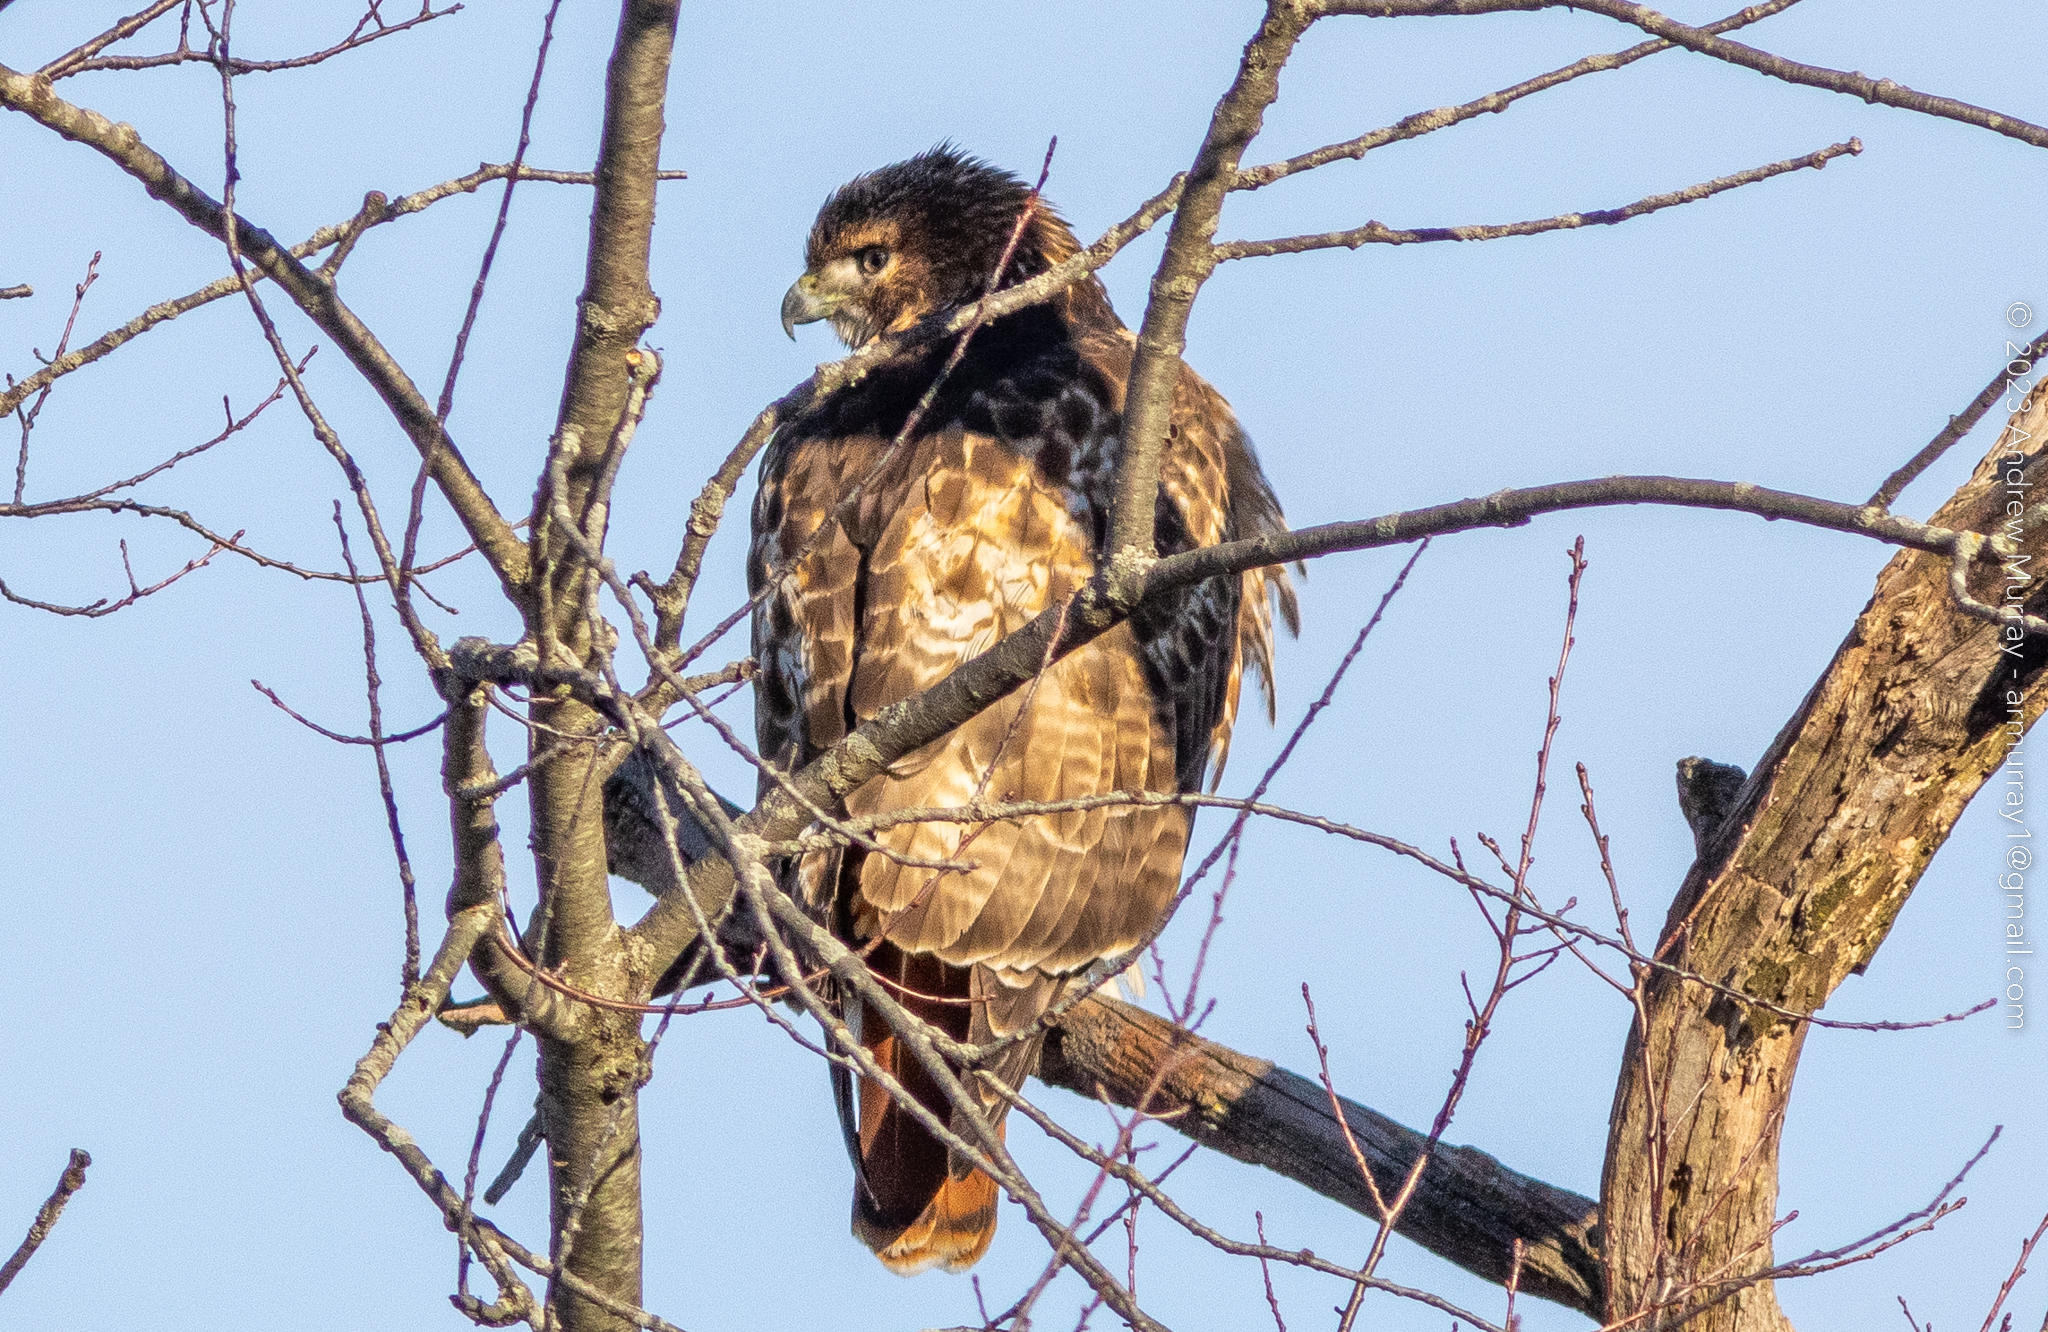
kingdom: Animalia
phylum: Chordata
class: Aves
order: Accipitriformes
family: Accipitridae
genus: Buteo
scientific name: Buteo jamaicensis
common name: Red-tailed hawk
